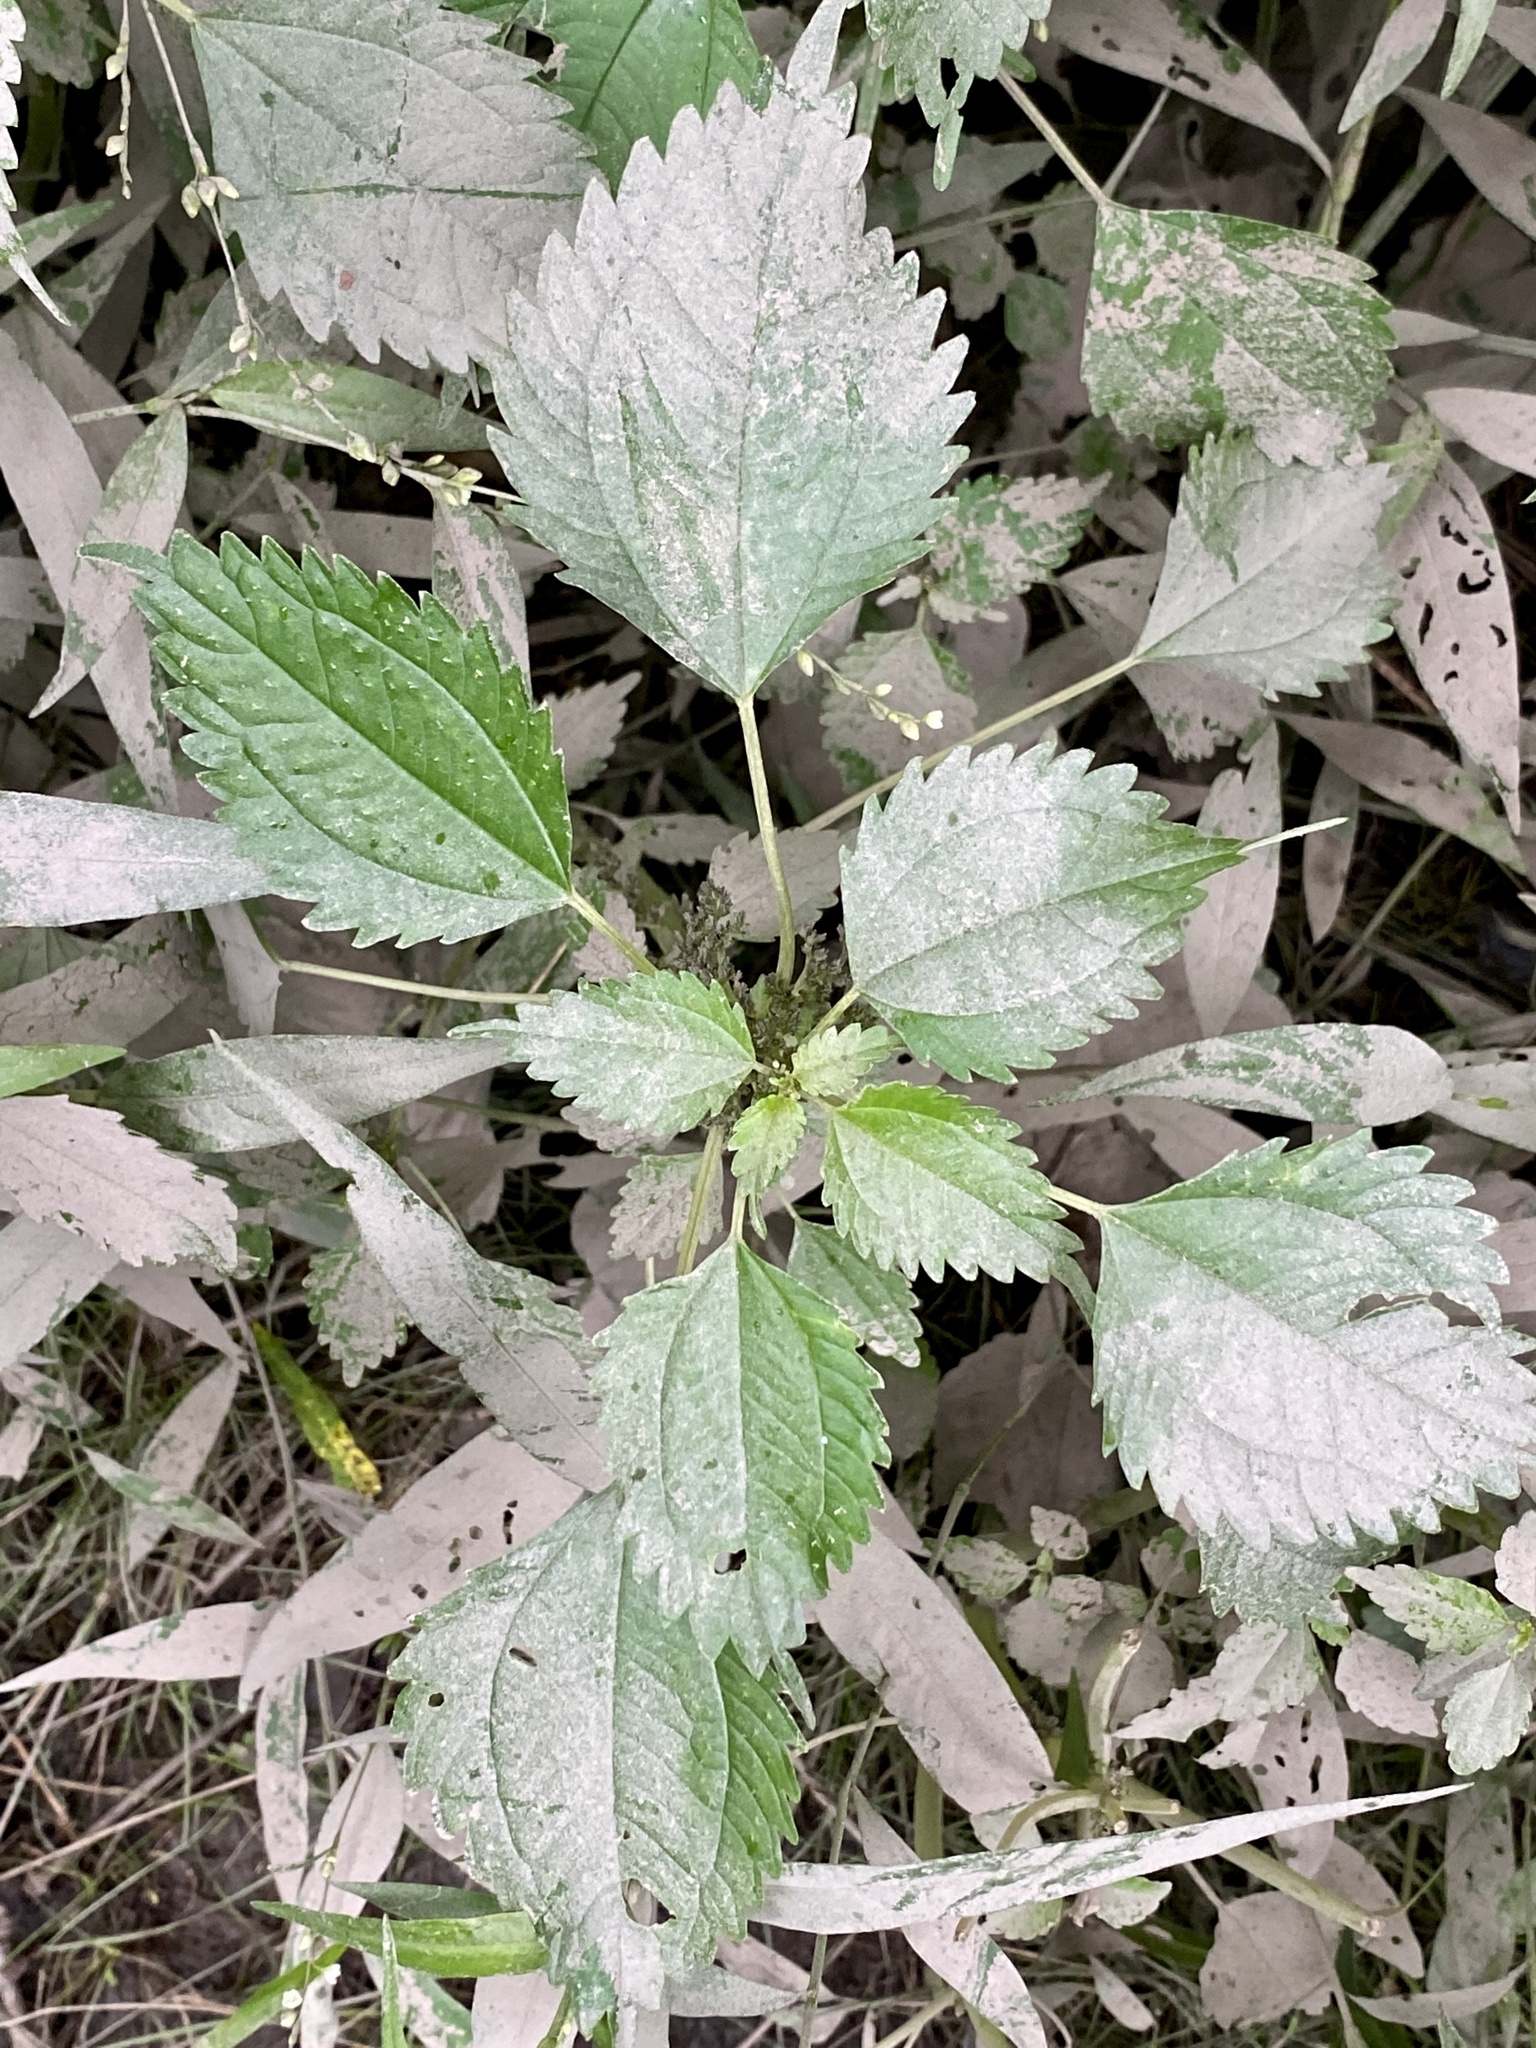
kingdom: Plantae
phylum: Tracheophyta
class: Magnoliopsida
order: Rosales
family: Urticaceae
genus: Pilea
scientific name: Pilea pumila
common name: Clearweed
